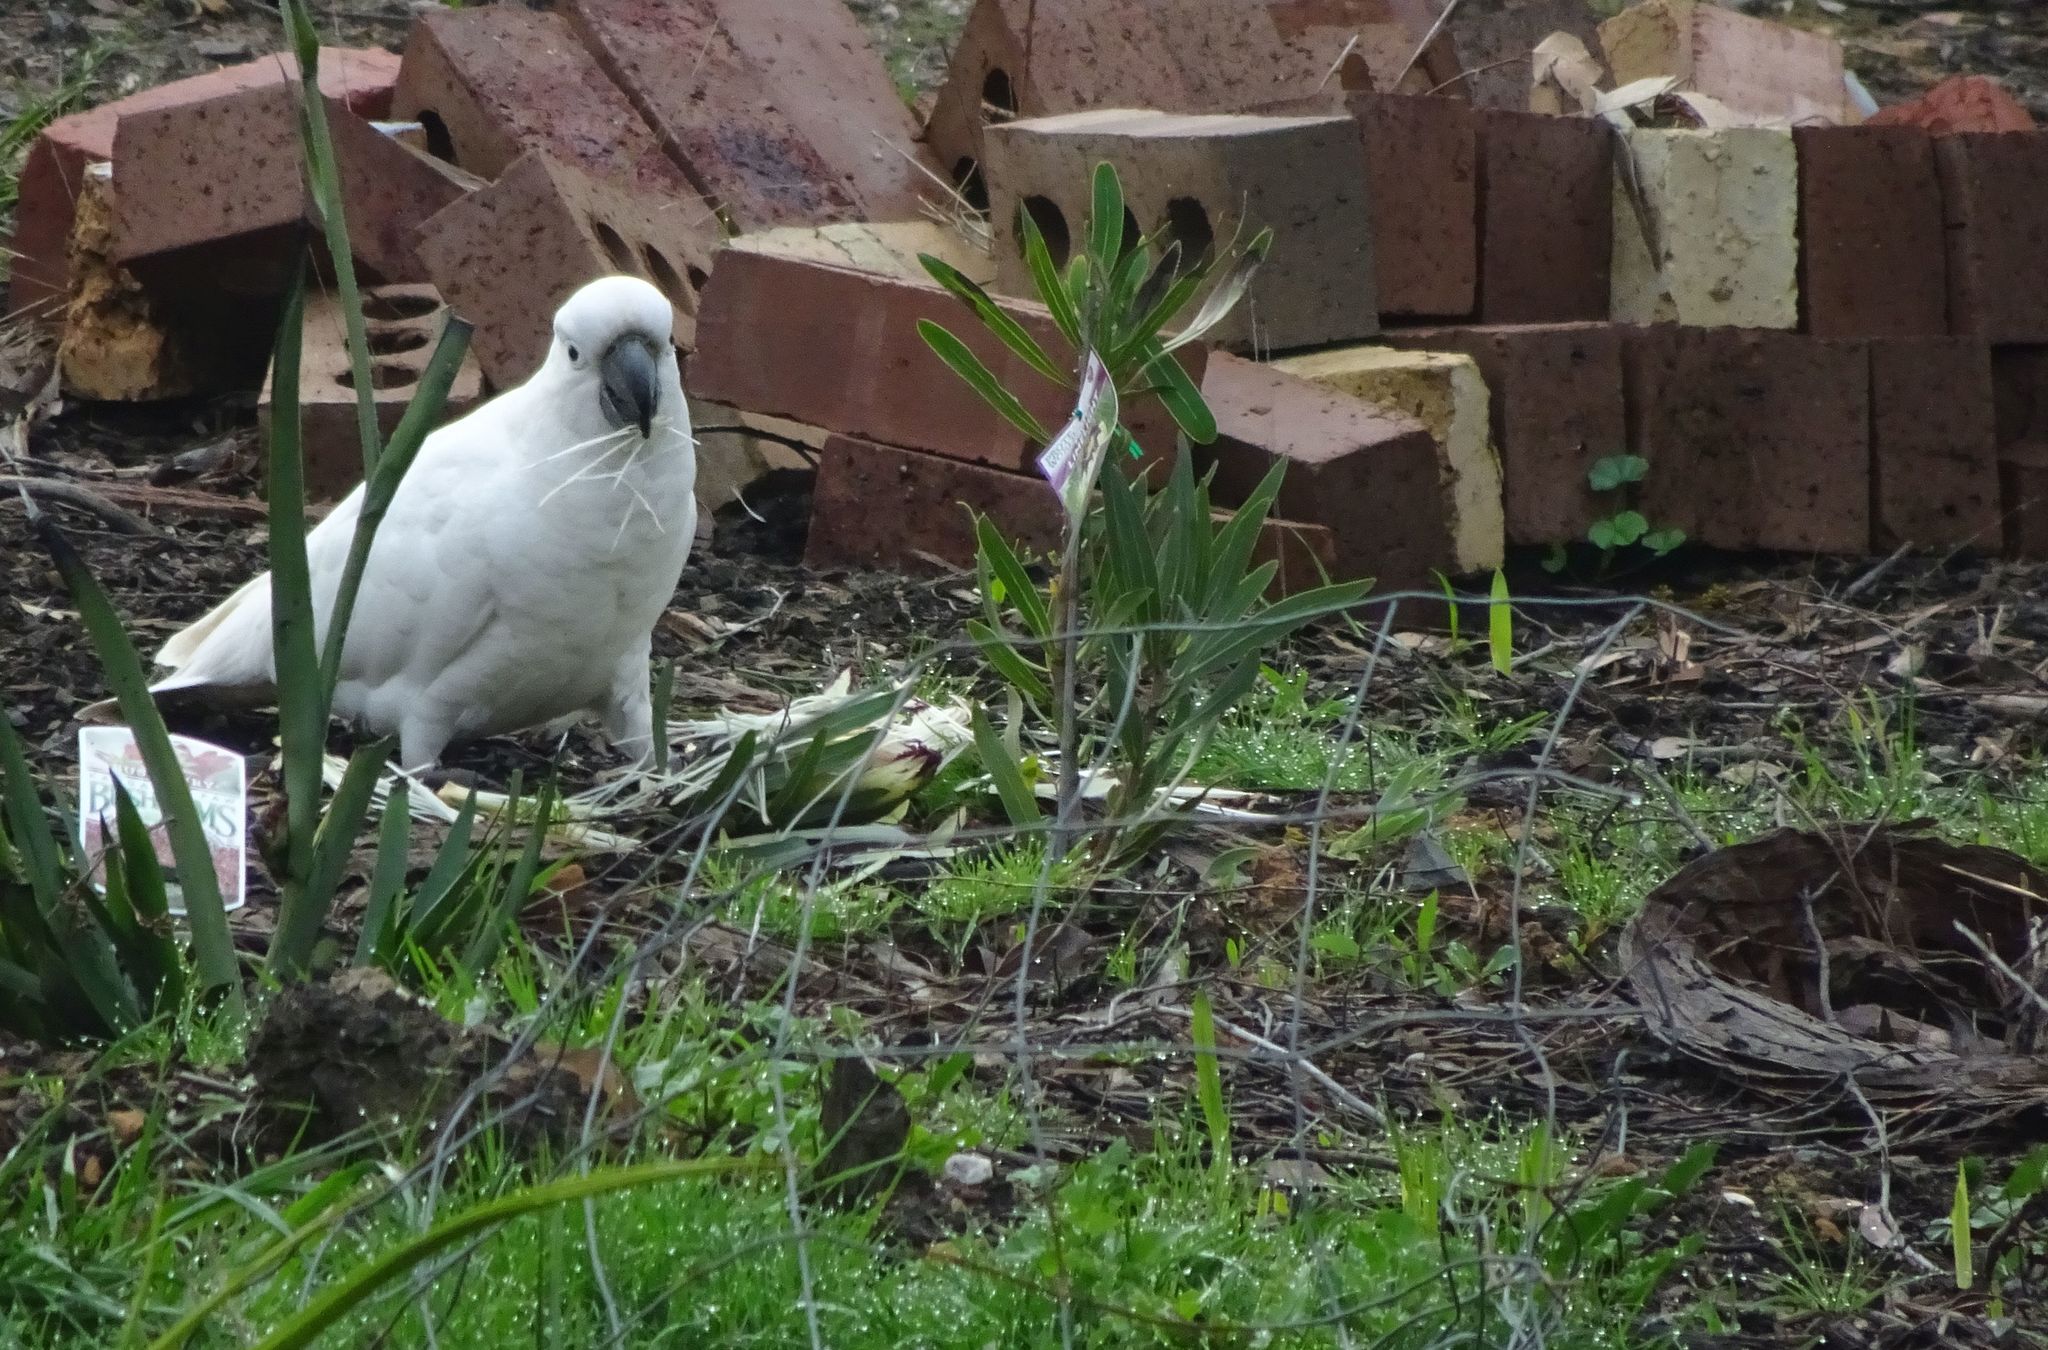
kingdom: Animalia
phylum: Chordata
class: Aves
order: Psittaciformes
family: Psittacidae
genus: Cacatua
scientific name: Cacatua galerita
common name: Sulphur-crested cockatoo
